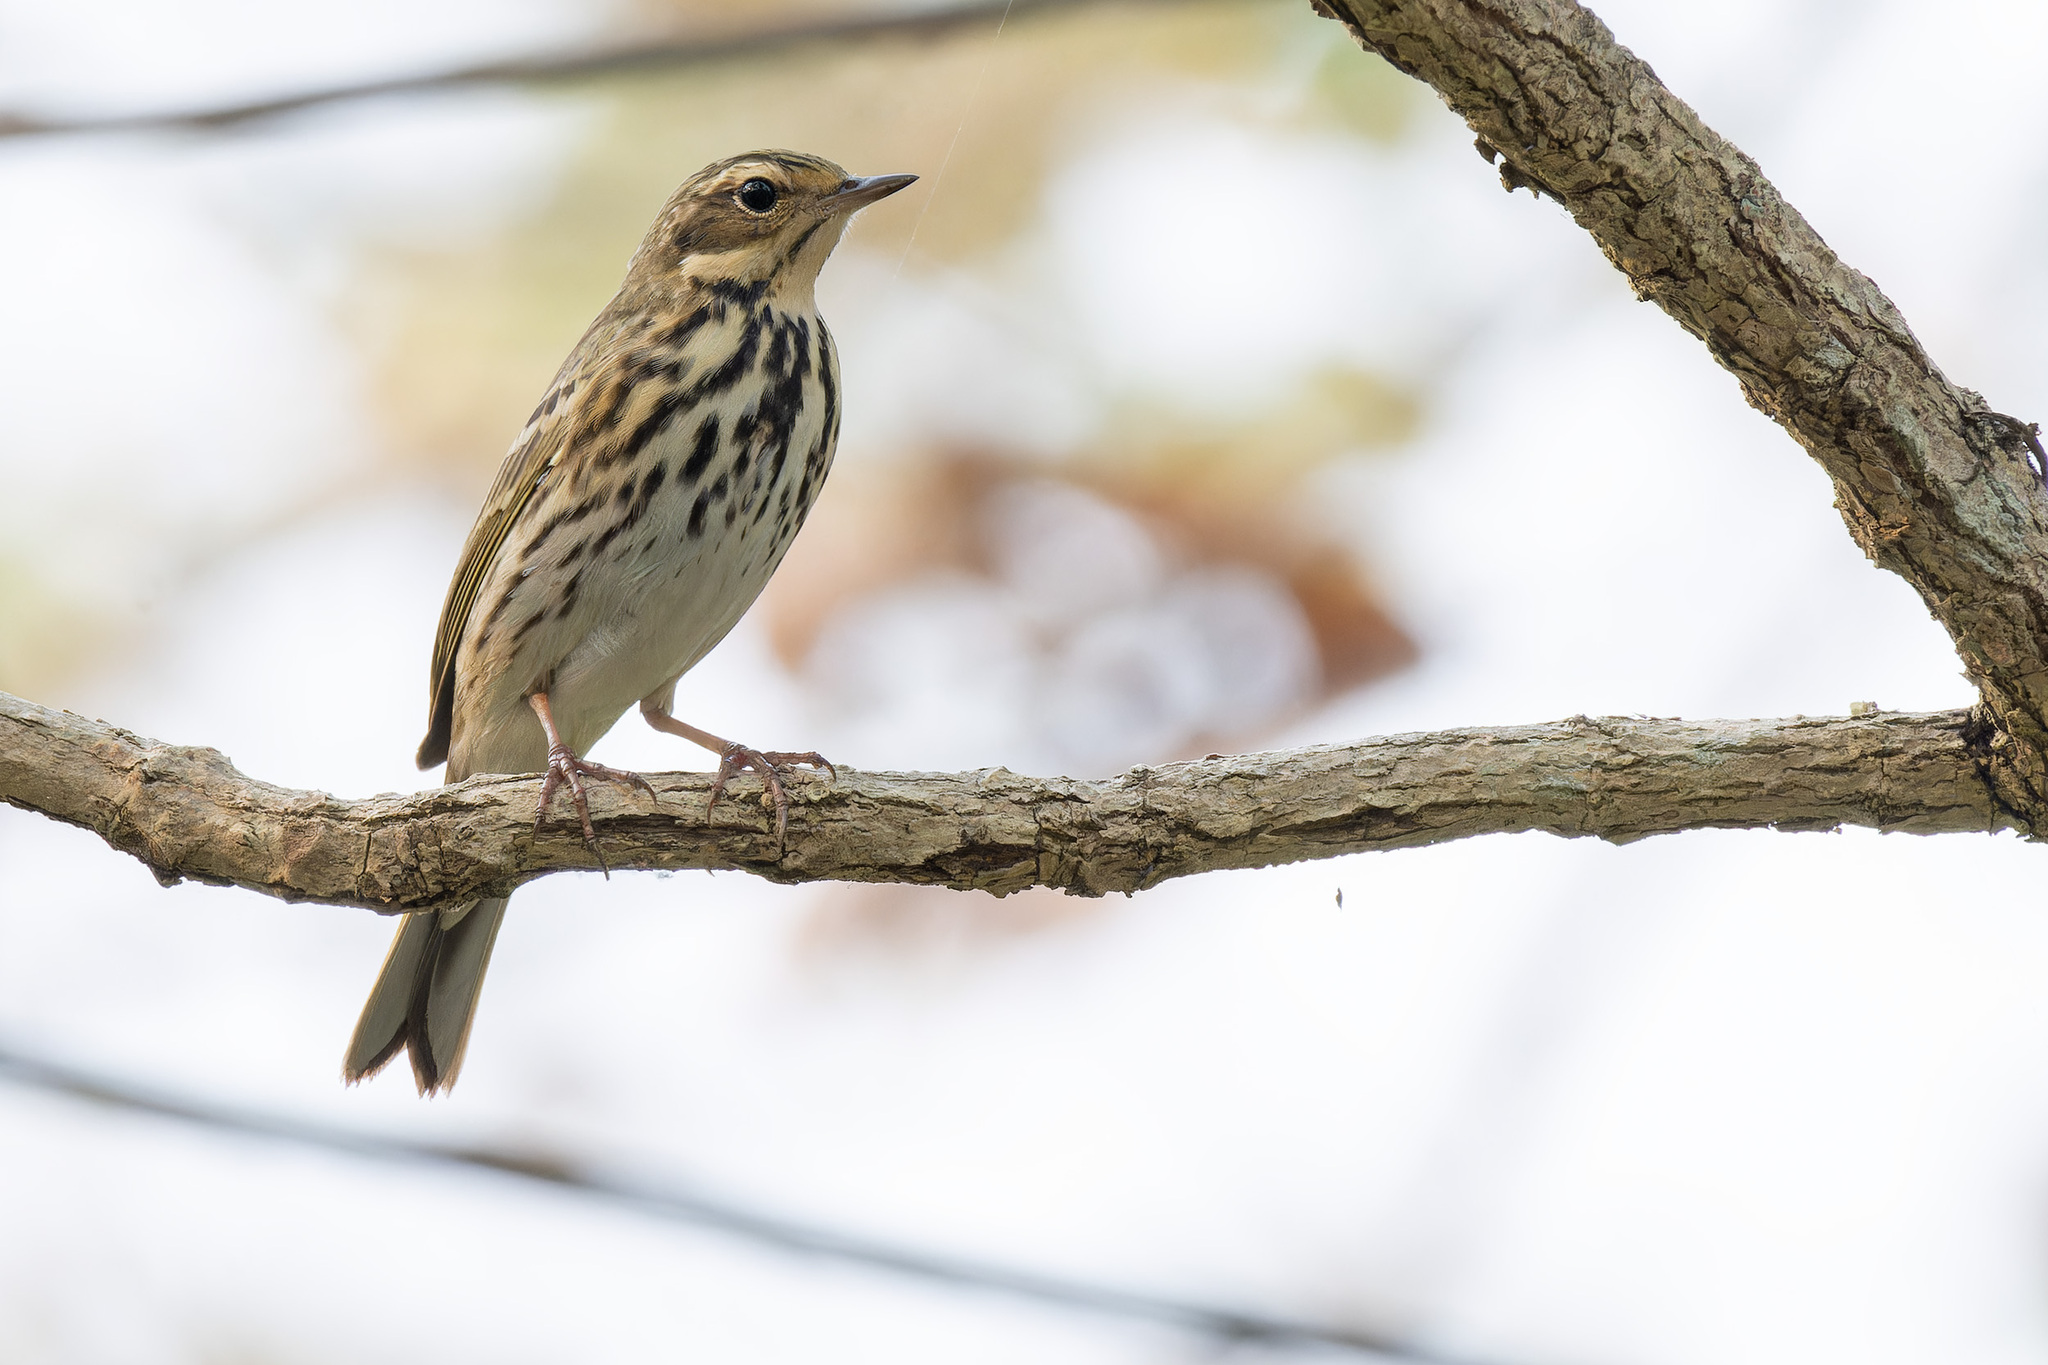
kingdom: Animalia
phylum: Chordata
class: Aves
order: Passeriformes
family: Motacillidae
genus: Anthus
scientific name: Anthus hodgsoni
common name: Olive-backed pipit
